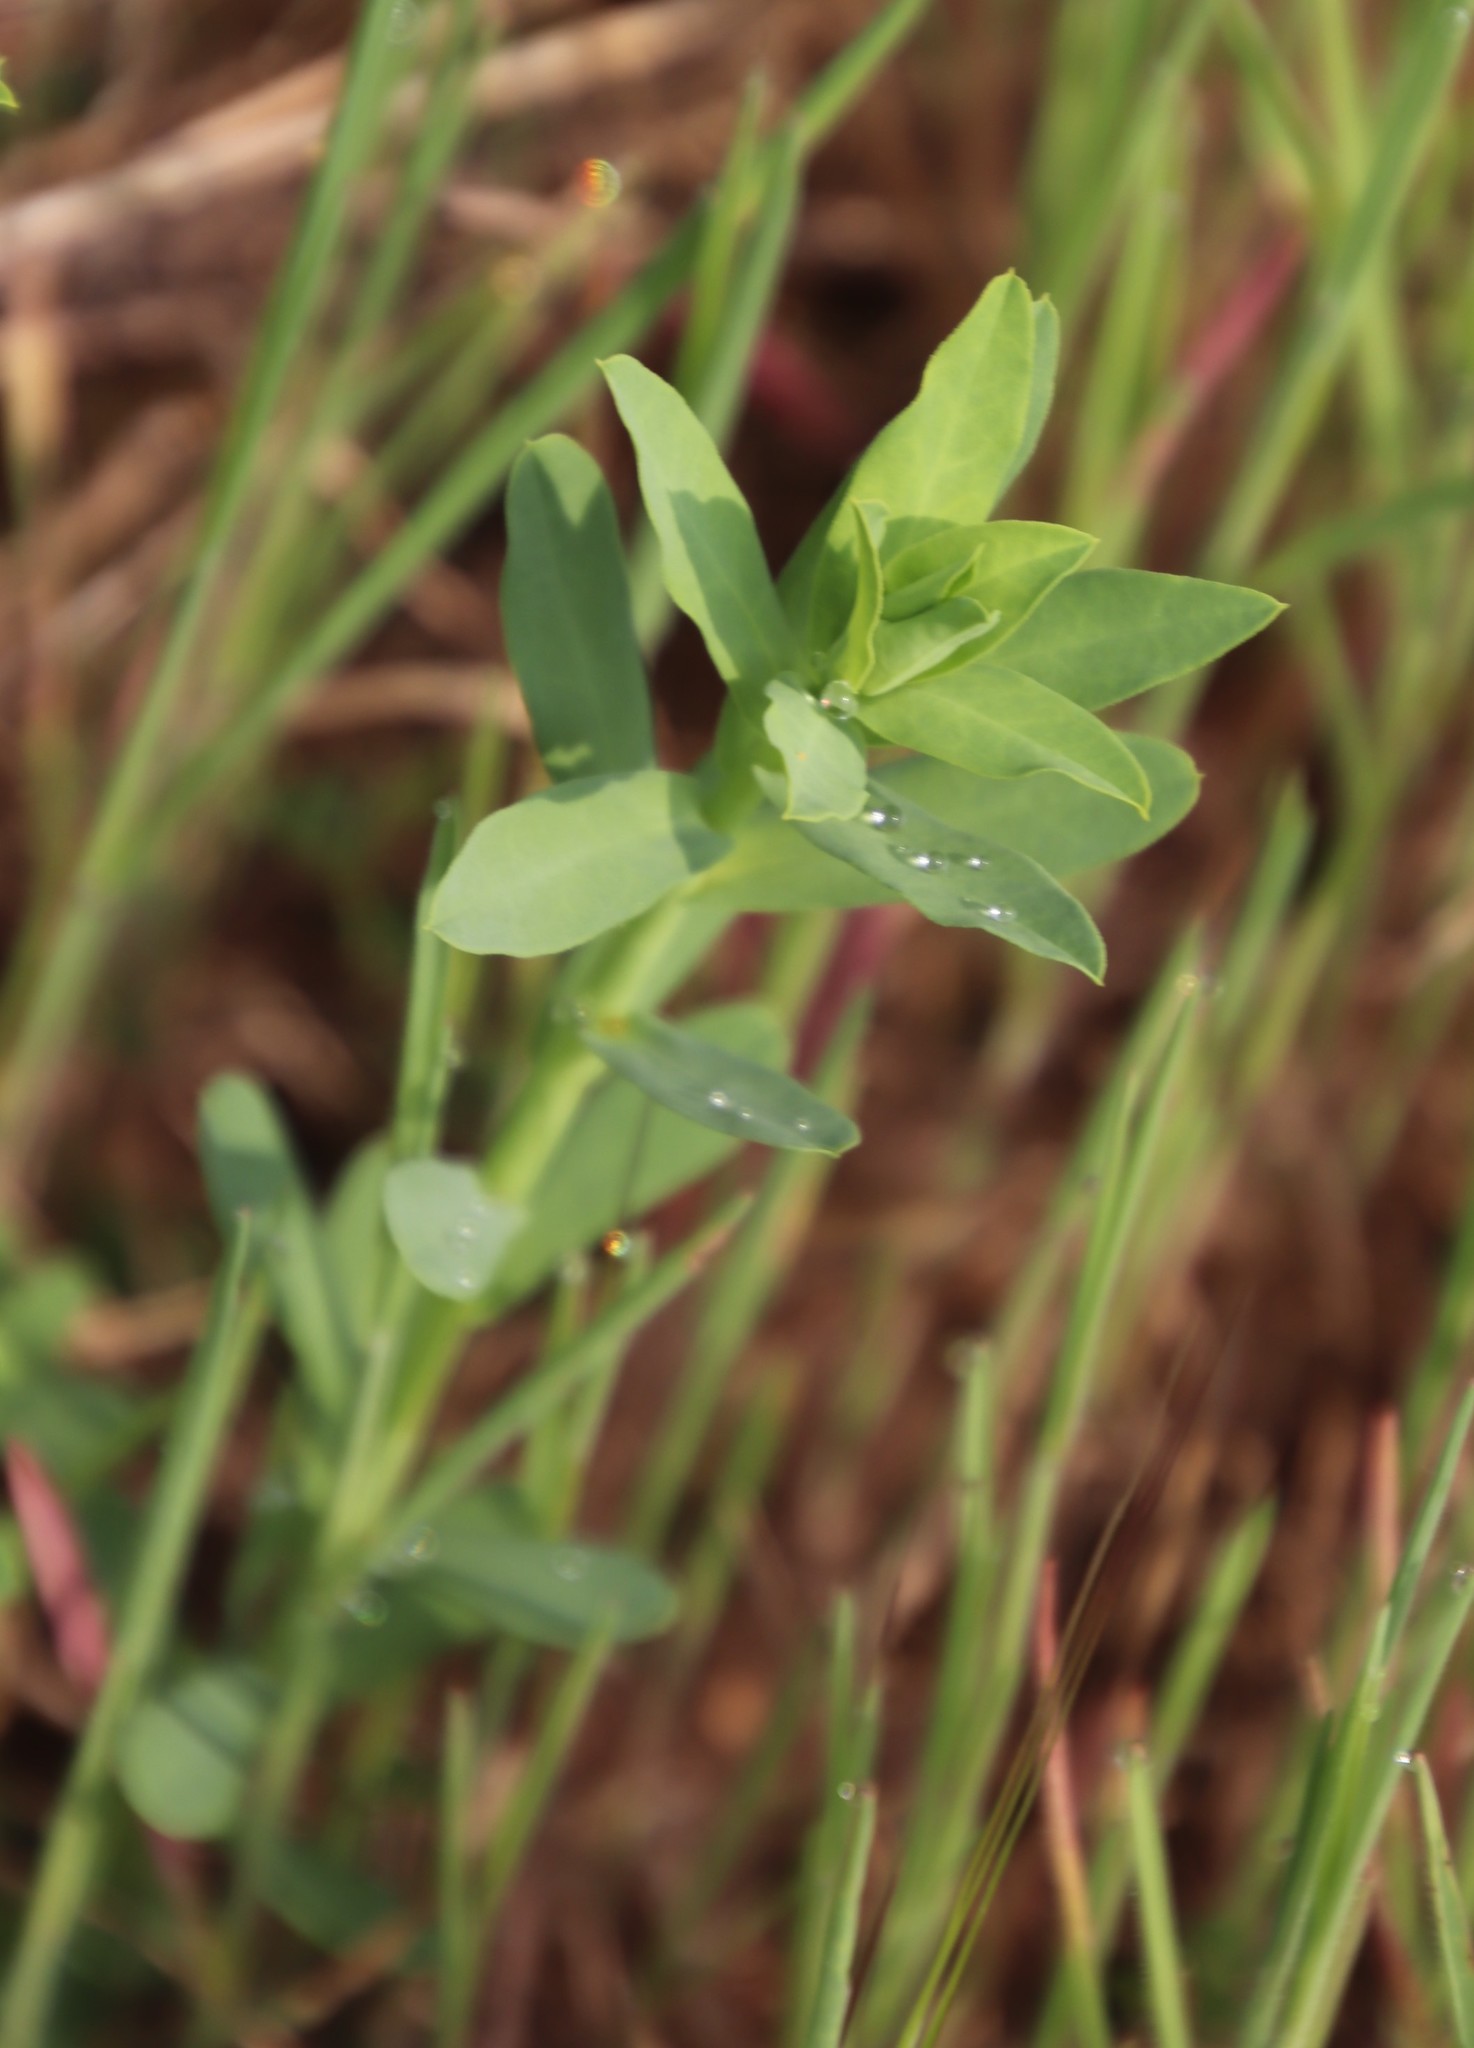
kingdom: Plantae
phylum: Tracheophyta
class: Magnoliopsida
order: Malpighiales
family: Euphorbiaceae
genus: Euphorbia
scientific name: Euphorbia terracina
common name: Geraldton carnation weed
